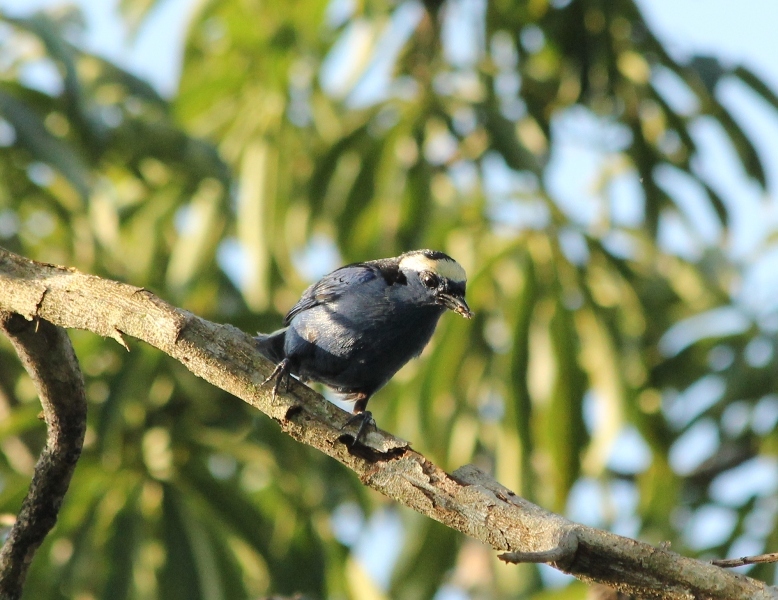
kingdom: Animalia
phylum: Chordata
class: Aves
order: Passeriformes
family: Thraupidae
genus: Tangara
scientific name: Tangara callophrys
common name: Opal-crowned tanager
